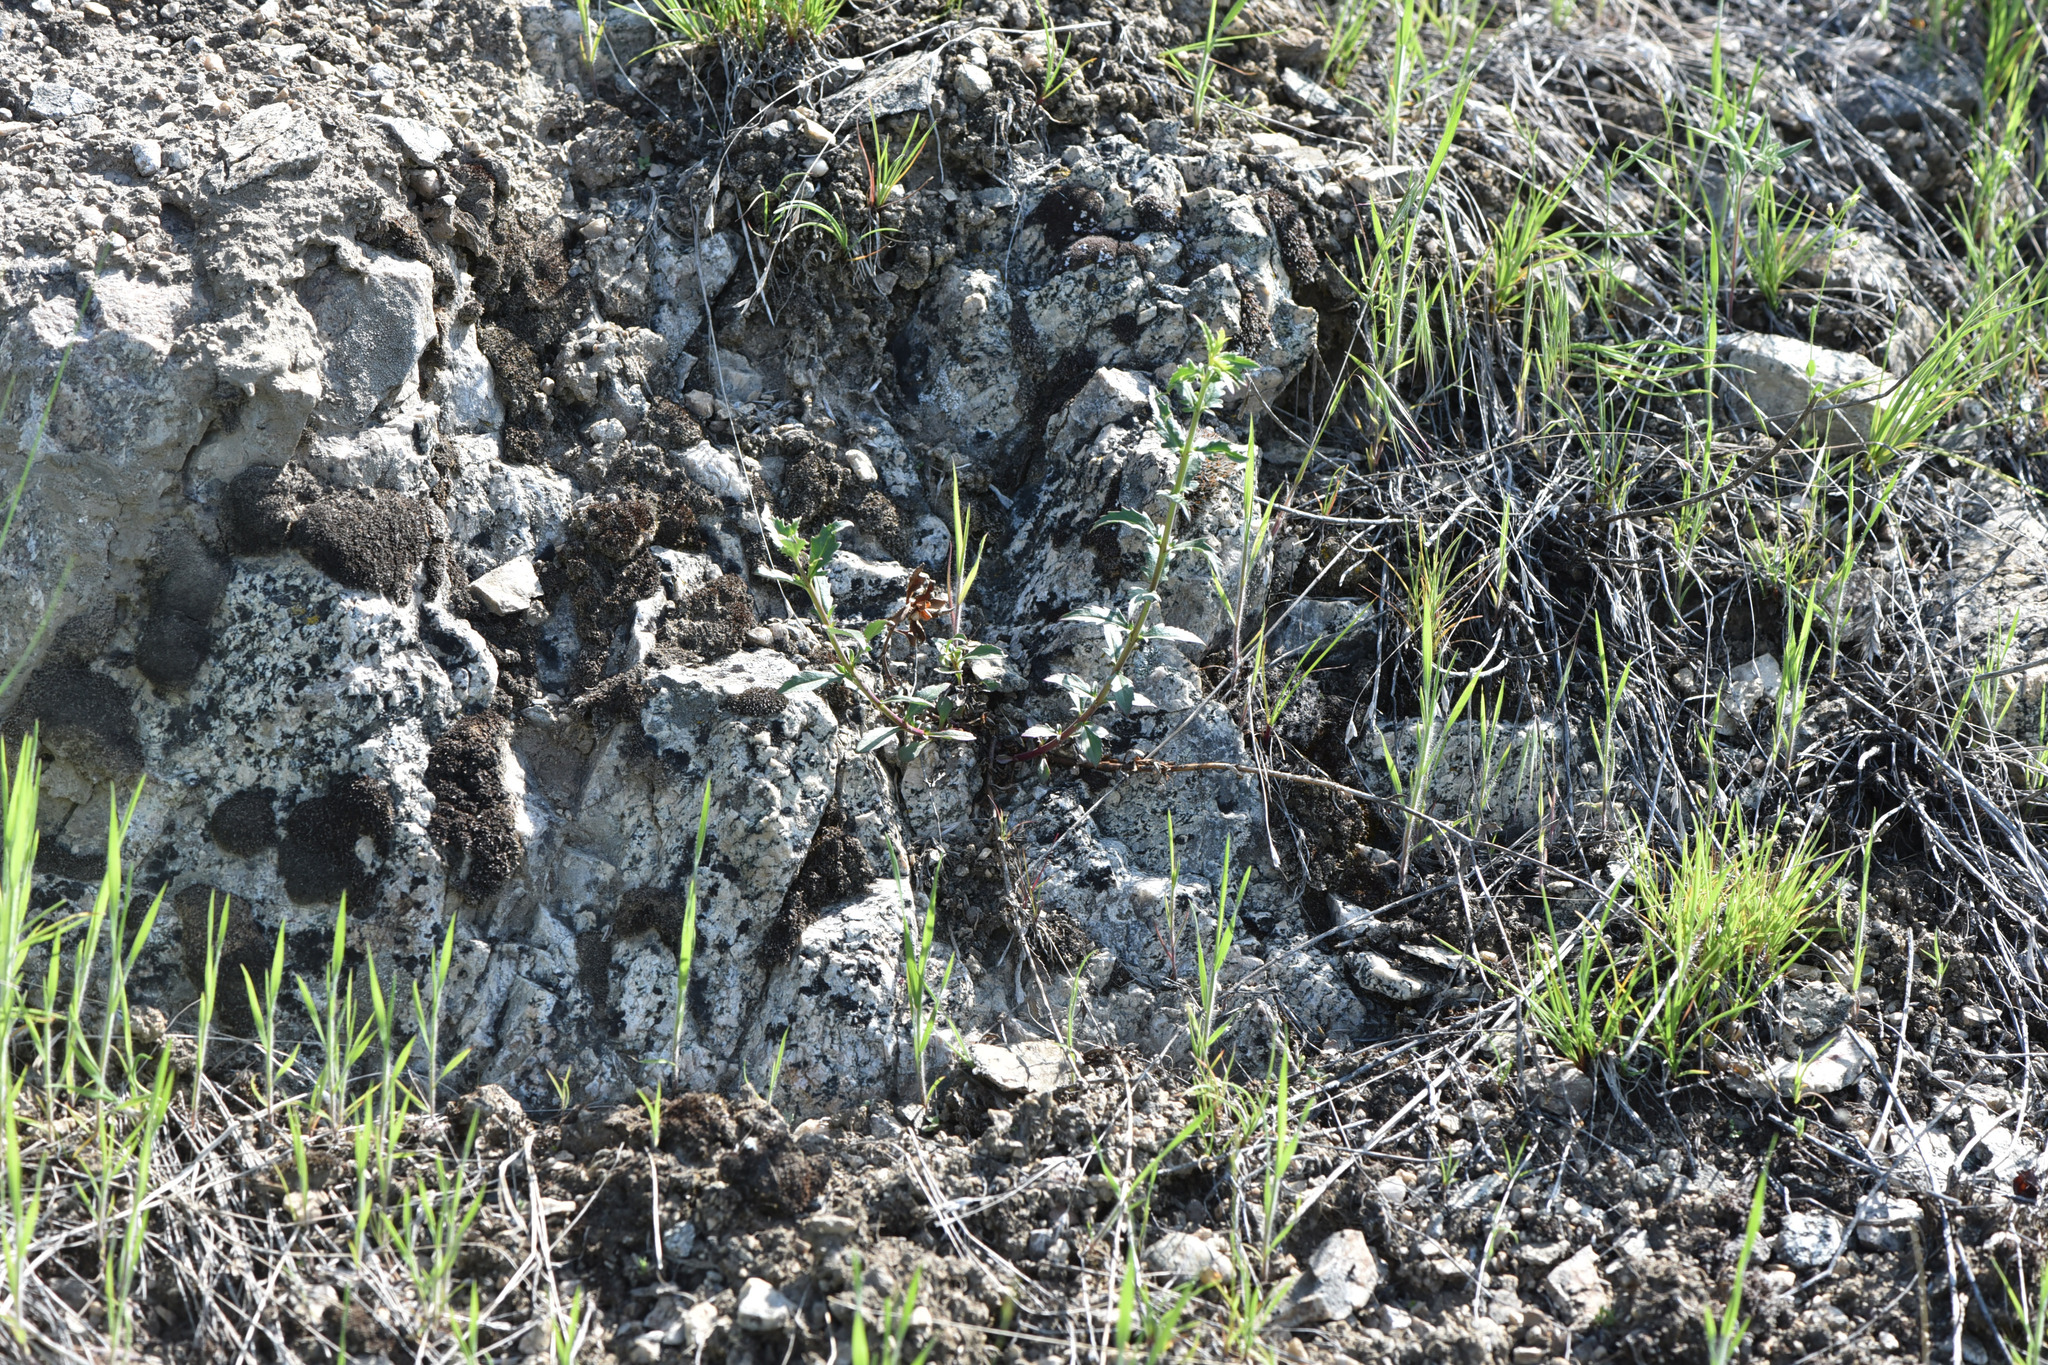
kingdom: Plantae
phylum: Tracheophyta
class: Magnoliopsida
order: Lamiales
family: Plantaginaceae
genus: Penstemon
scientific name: Penstemon richardsonii
